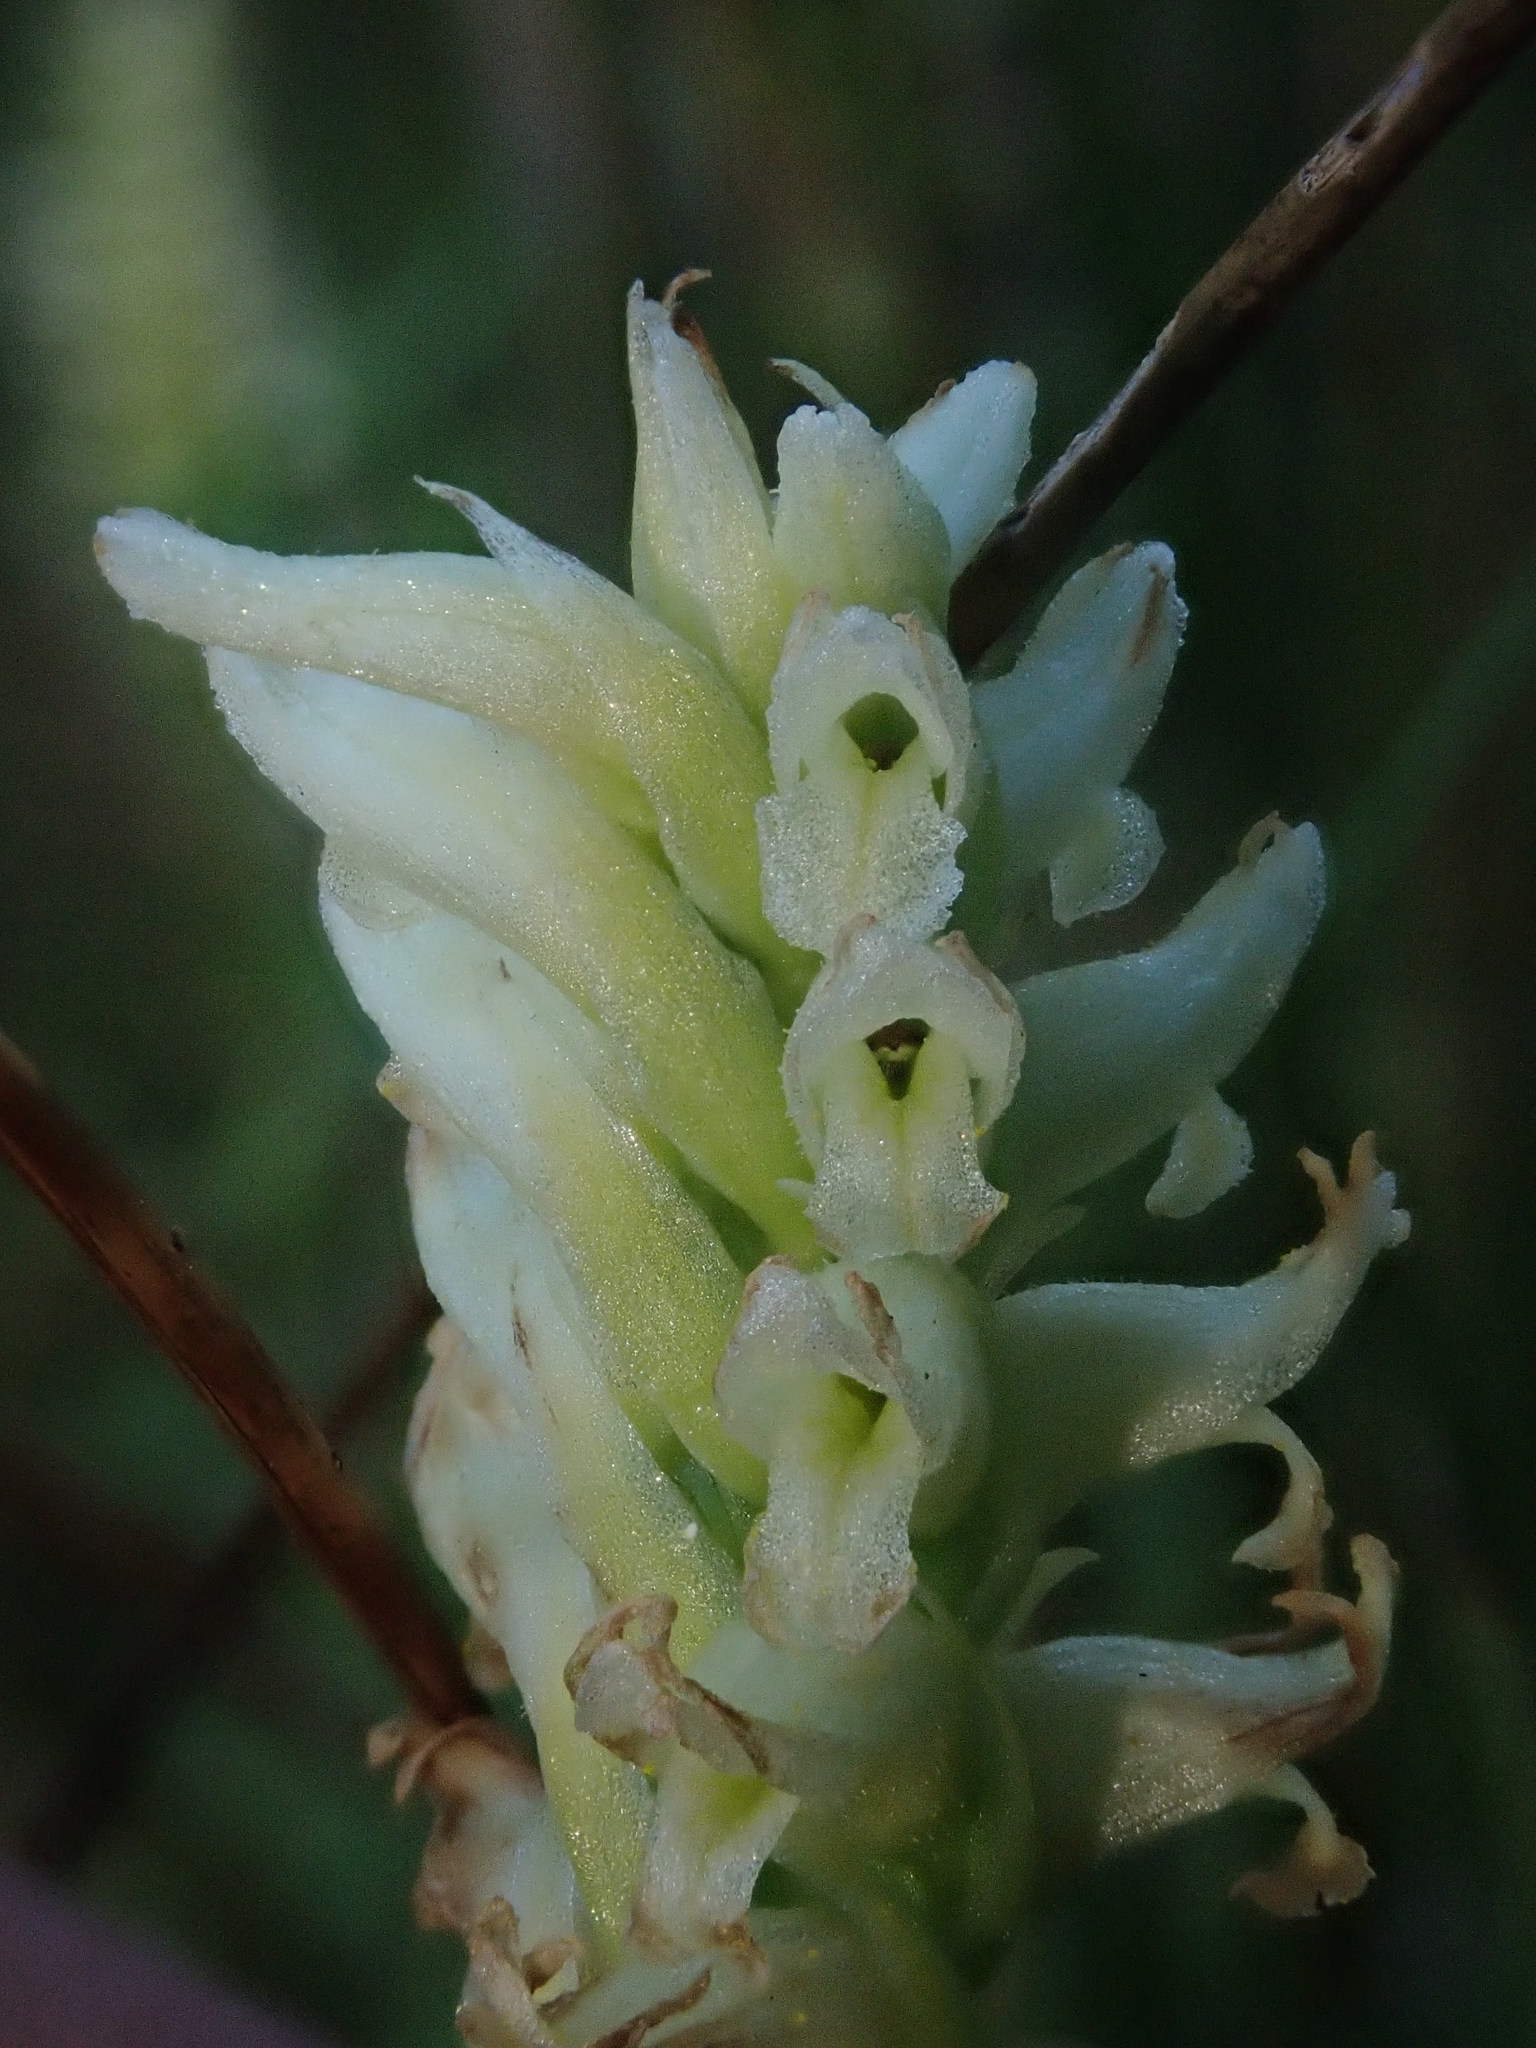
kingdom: Plantae
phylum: Tracheophyta
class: Liliopsida
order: Asparagales
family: Orchidaceae
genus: Spiranthes
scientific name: Spiranthes romanzoffiana
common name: Irish lady's-tresses
